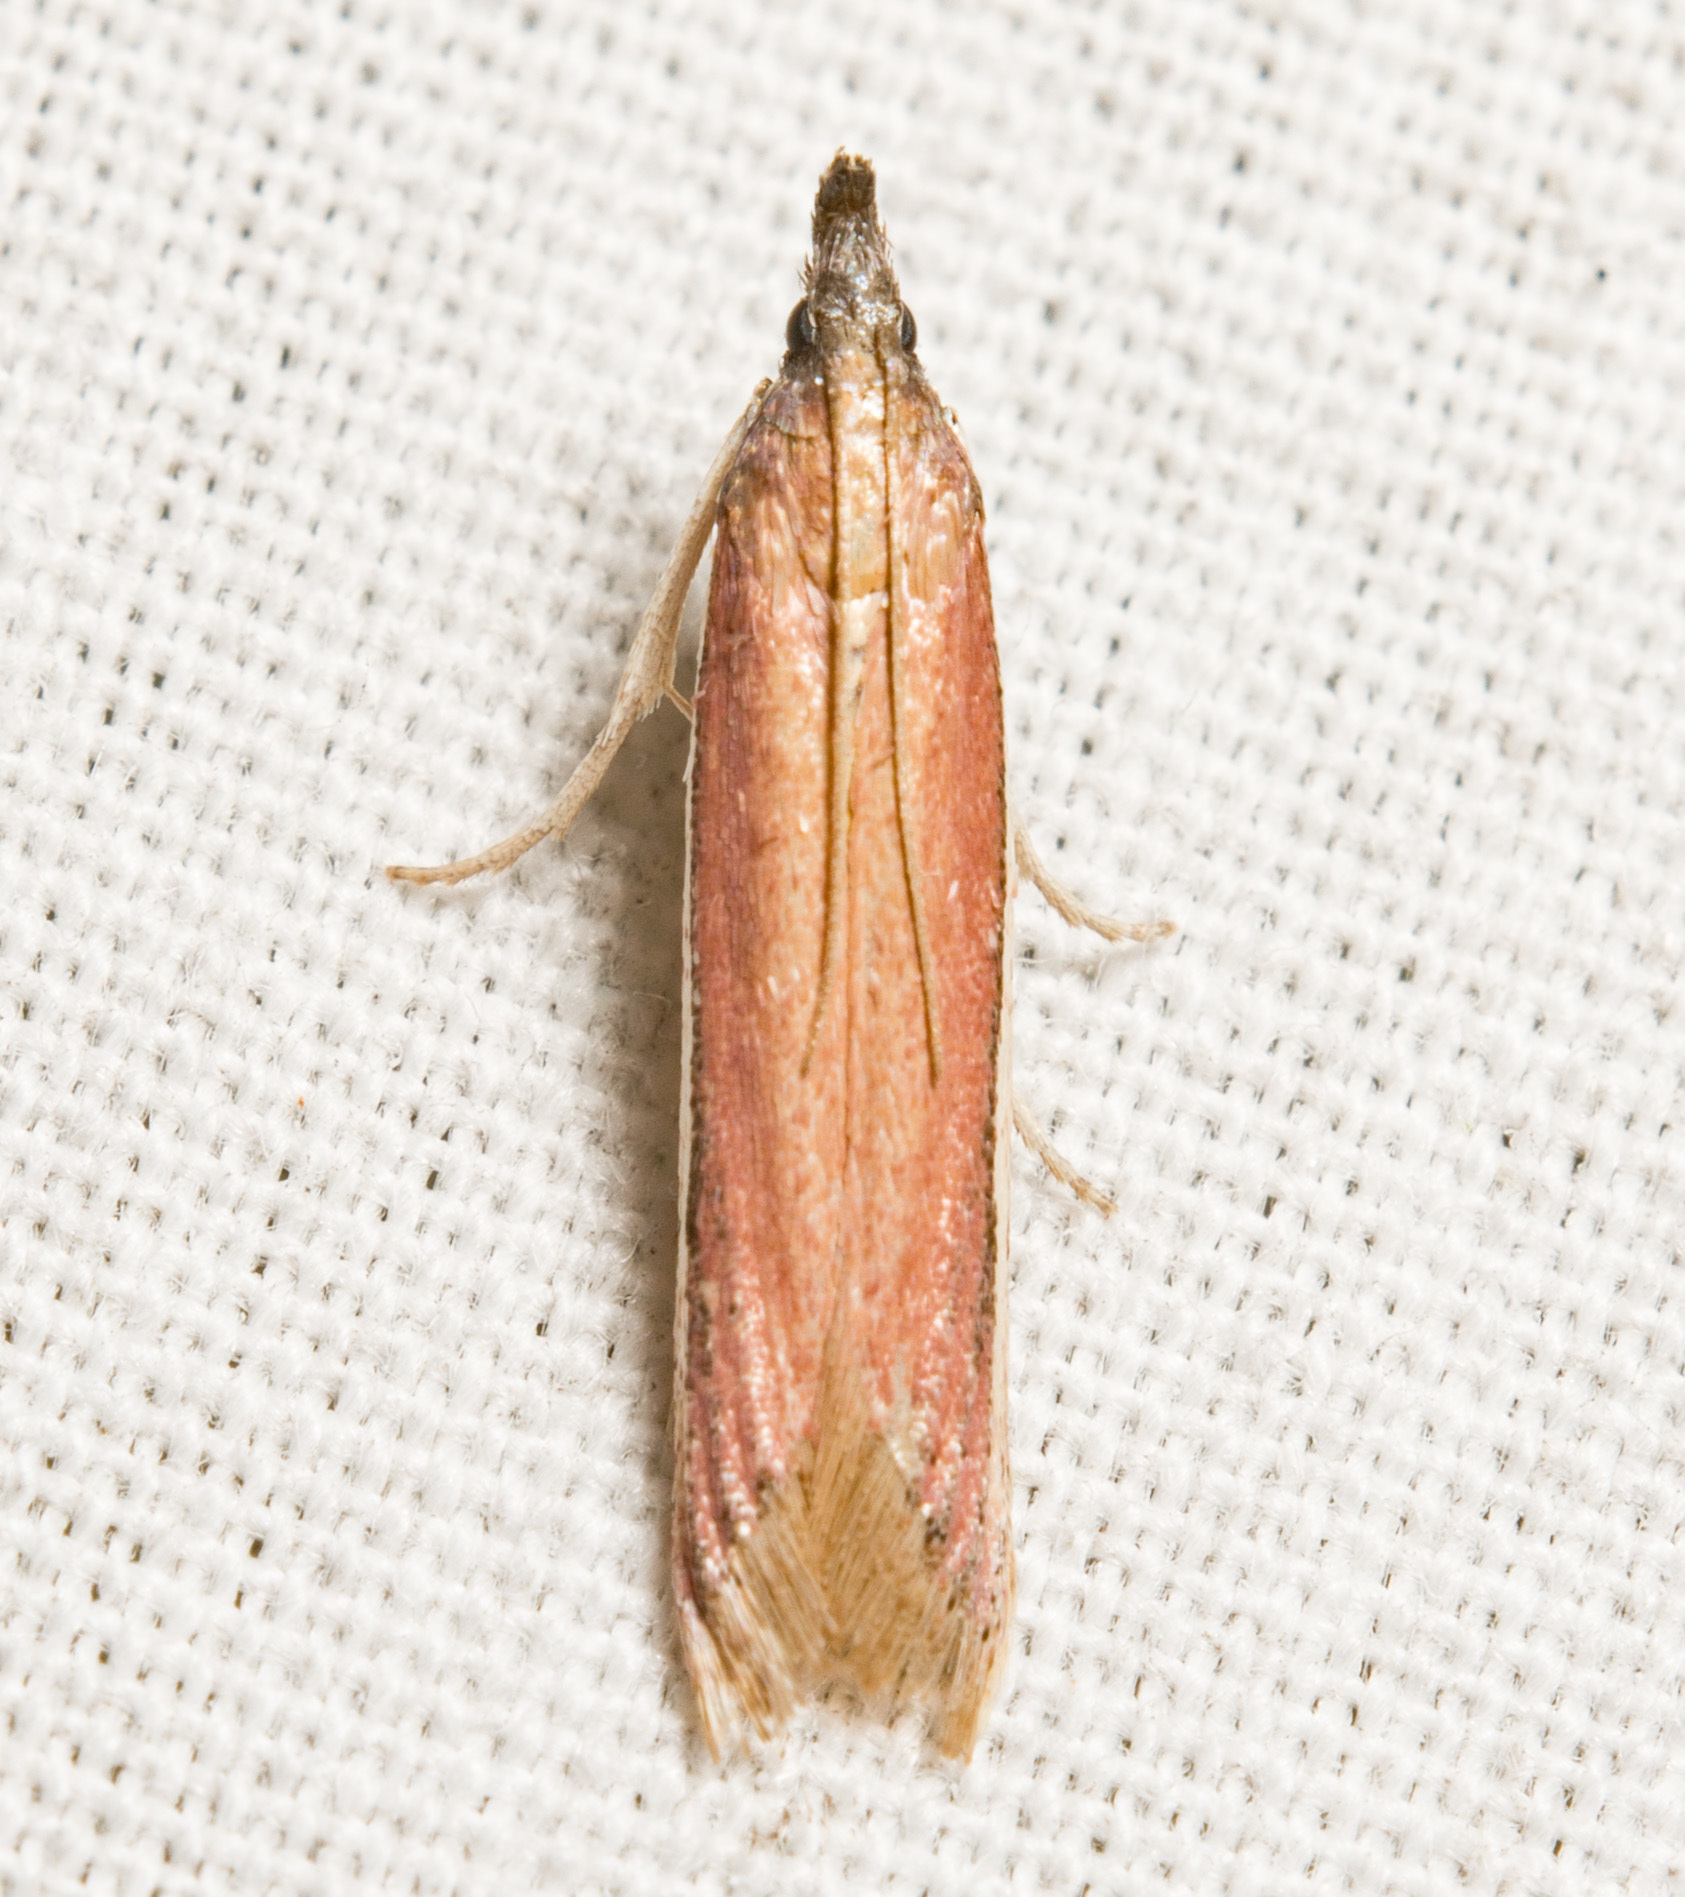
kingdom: Animalia
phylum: Arthropoda
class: Insecta
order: Lepidoptera
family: Pyralidae
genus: Tampa
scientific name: Tampa dimediatella
